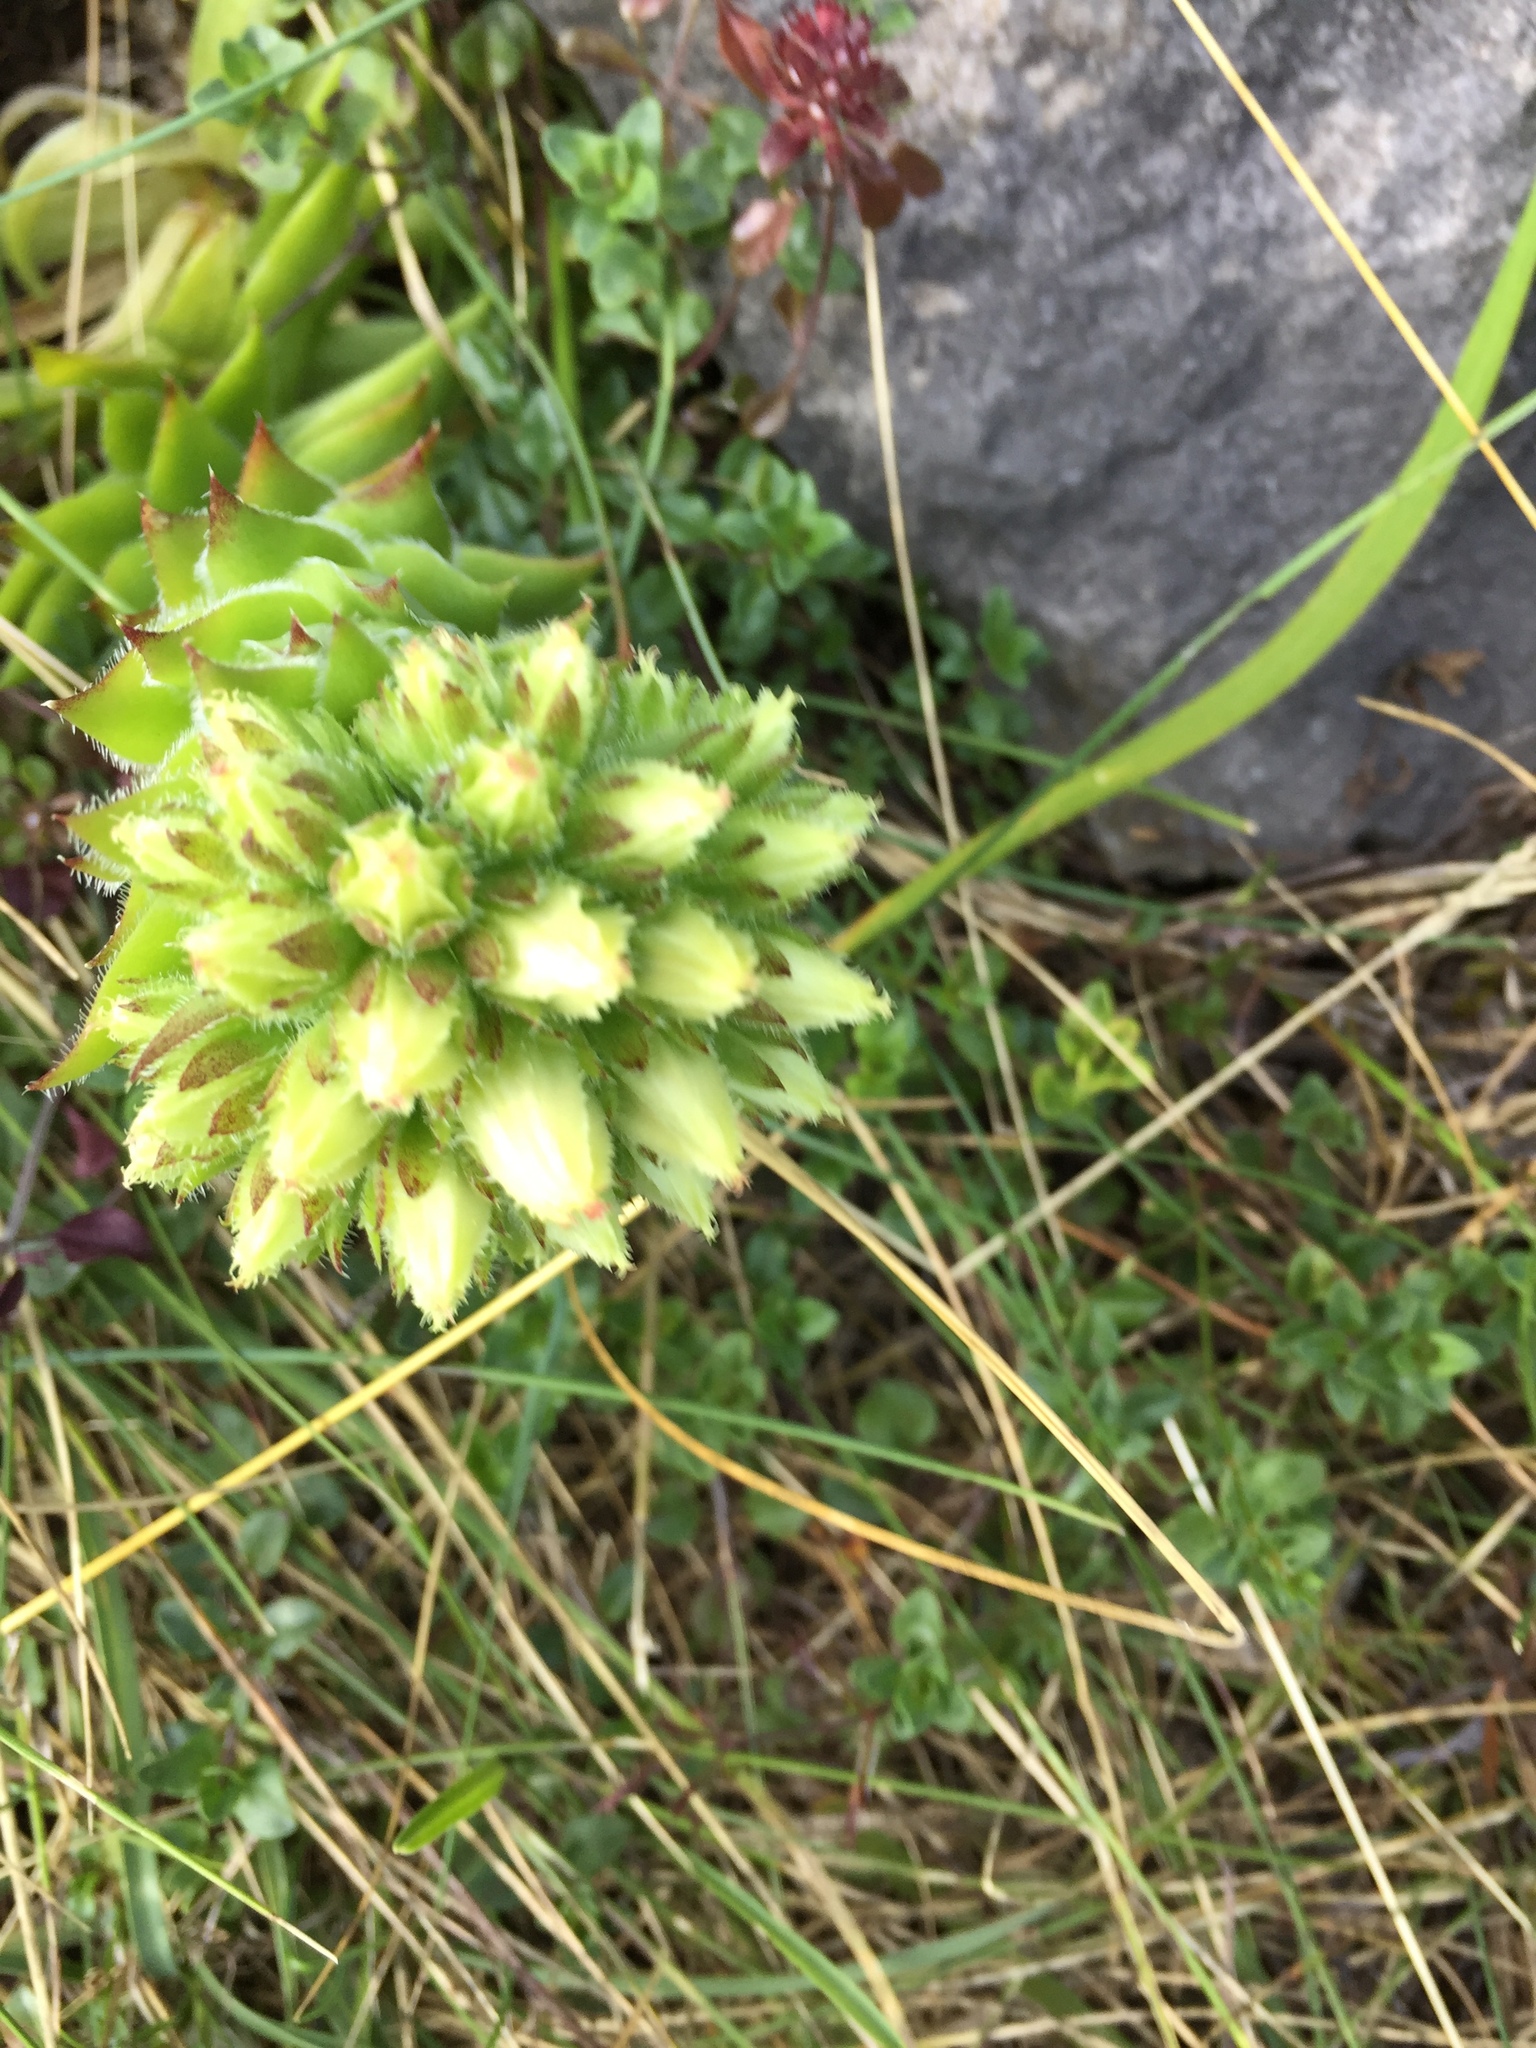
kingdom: Plantae
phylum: Tracheophyta
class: Magnoliopsida
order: Saxifragales
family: Crassulaceae
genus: Rhodiola
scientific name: Rhodiola rosea
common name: Roseroot
